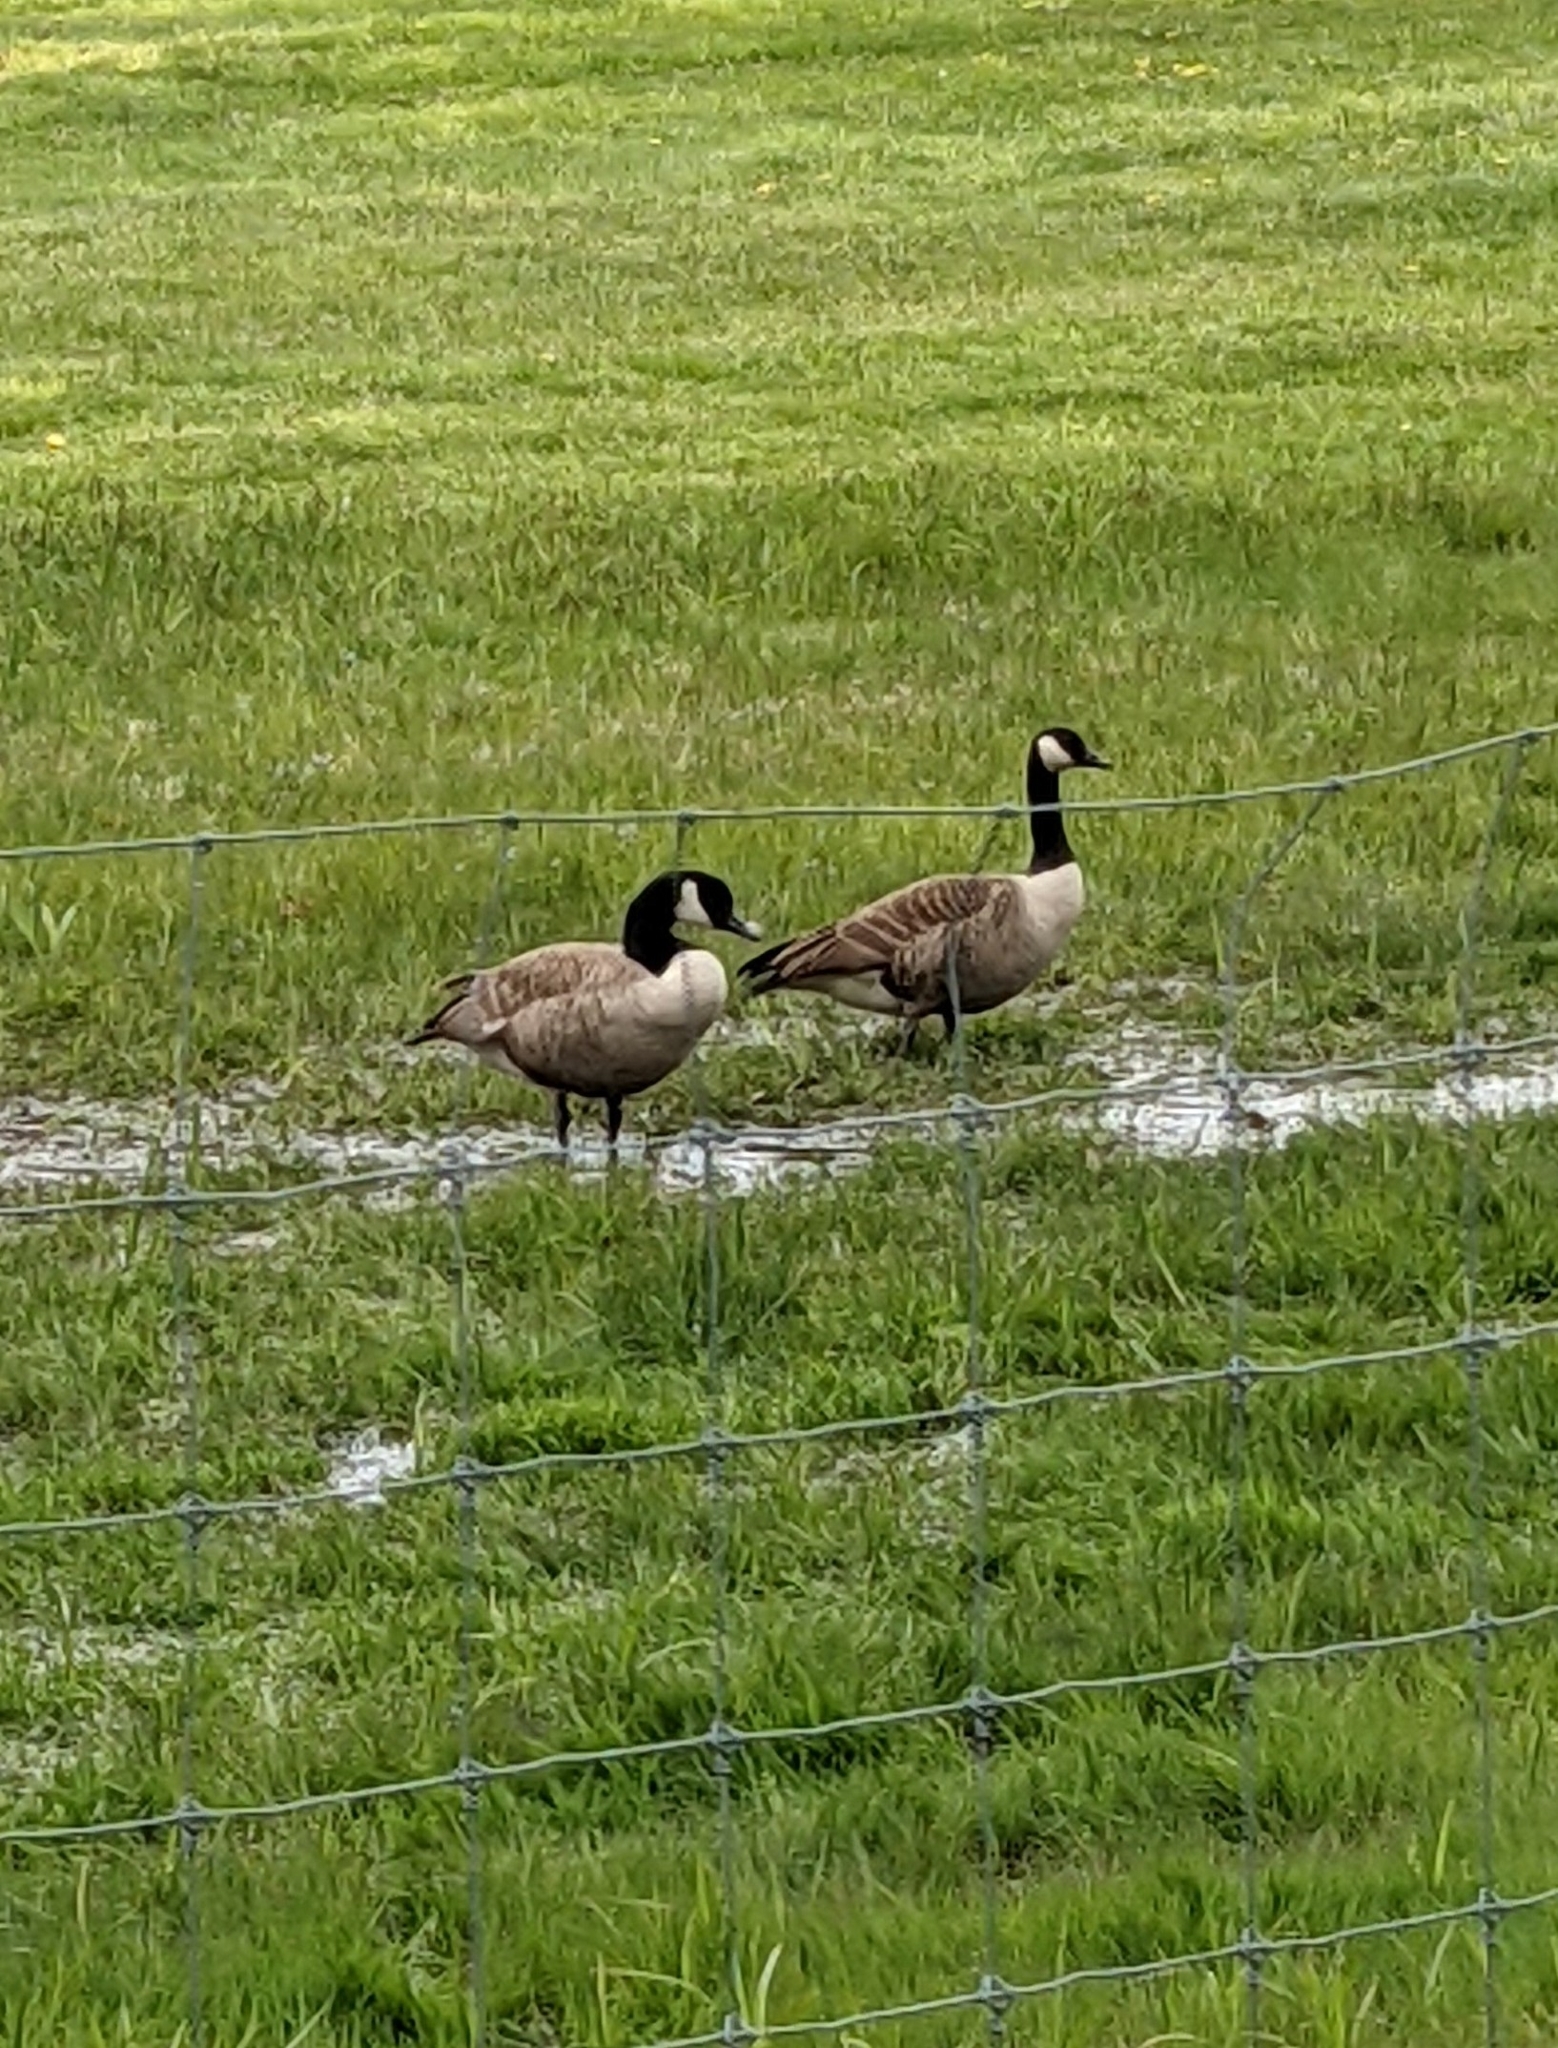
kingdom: Animalia
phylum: Chordata
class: Aves
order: Anseriformes
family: Anatidae
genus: Branta
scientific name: Branta canadensis
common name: Canada goose
